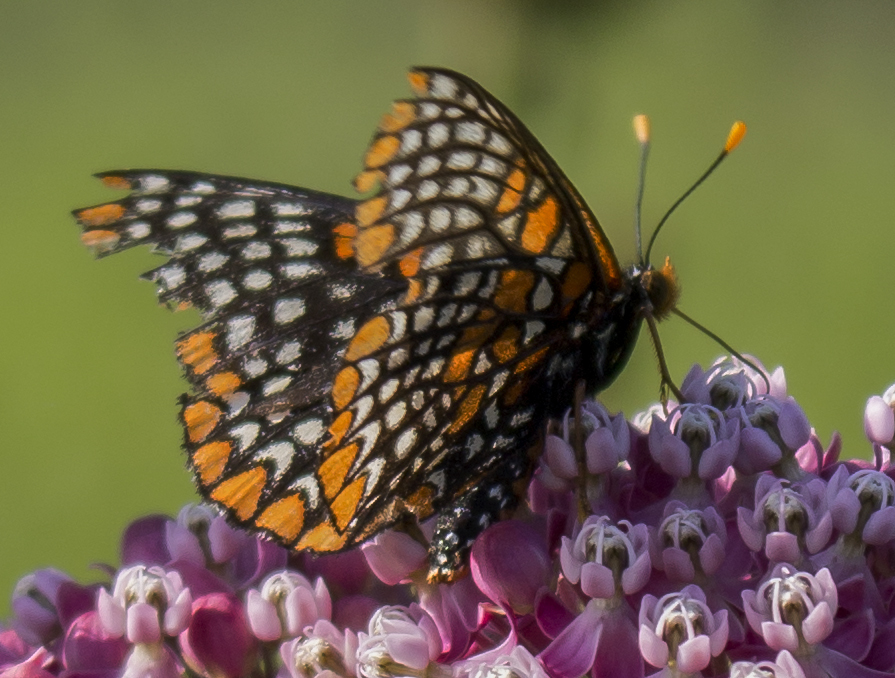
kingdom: Animalia
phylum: Arthropoda
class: Insecta
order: Lepidoptera
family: Nymphalidae
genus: Euphydryas
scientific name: Euphydryas phaeton
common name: Baltimore checkerspot
